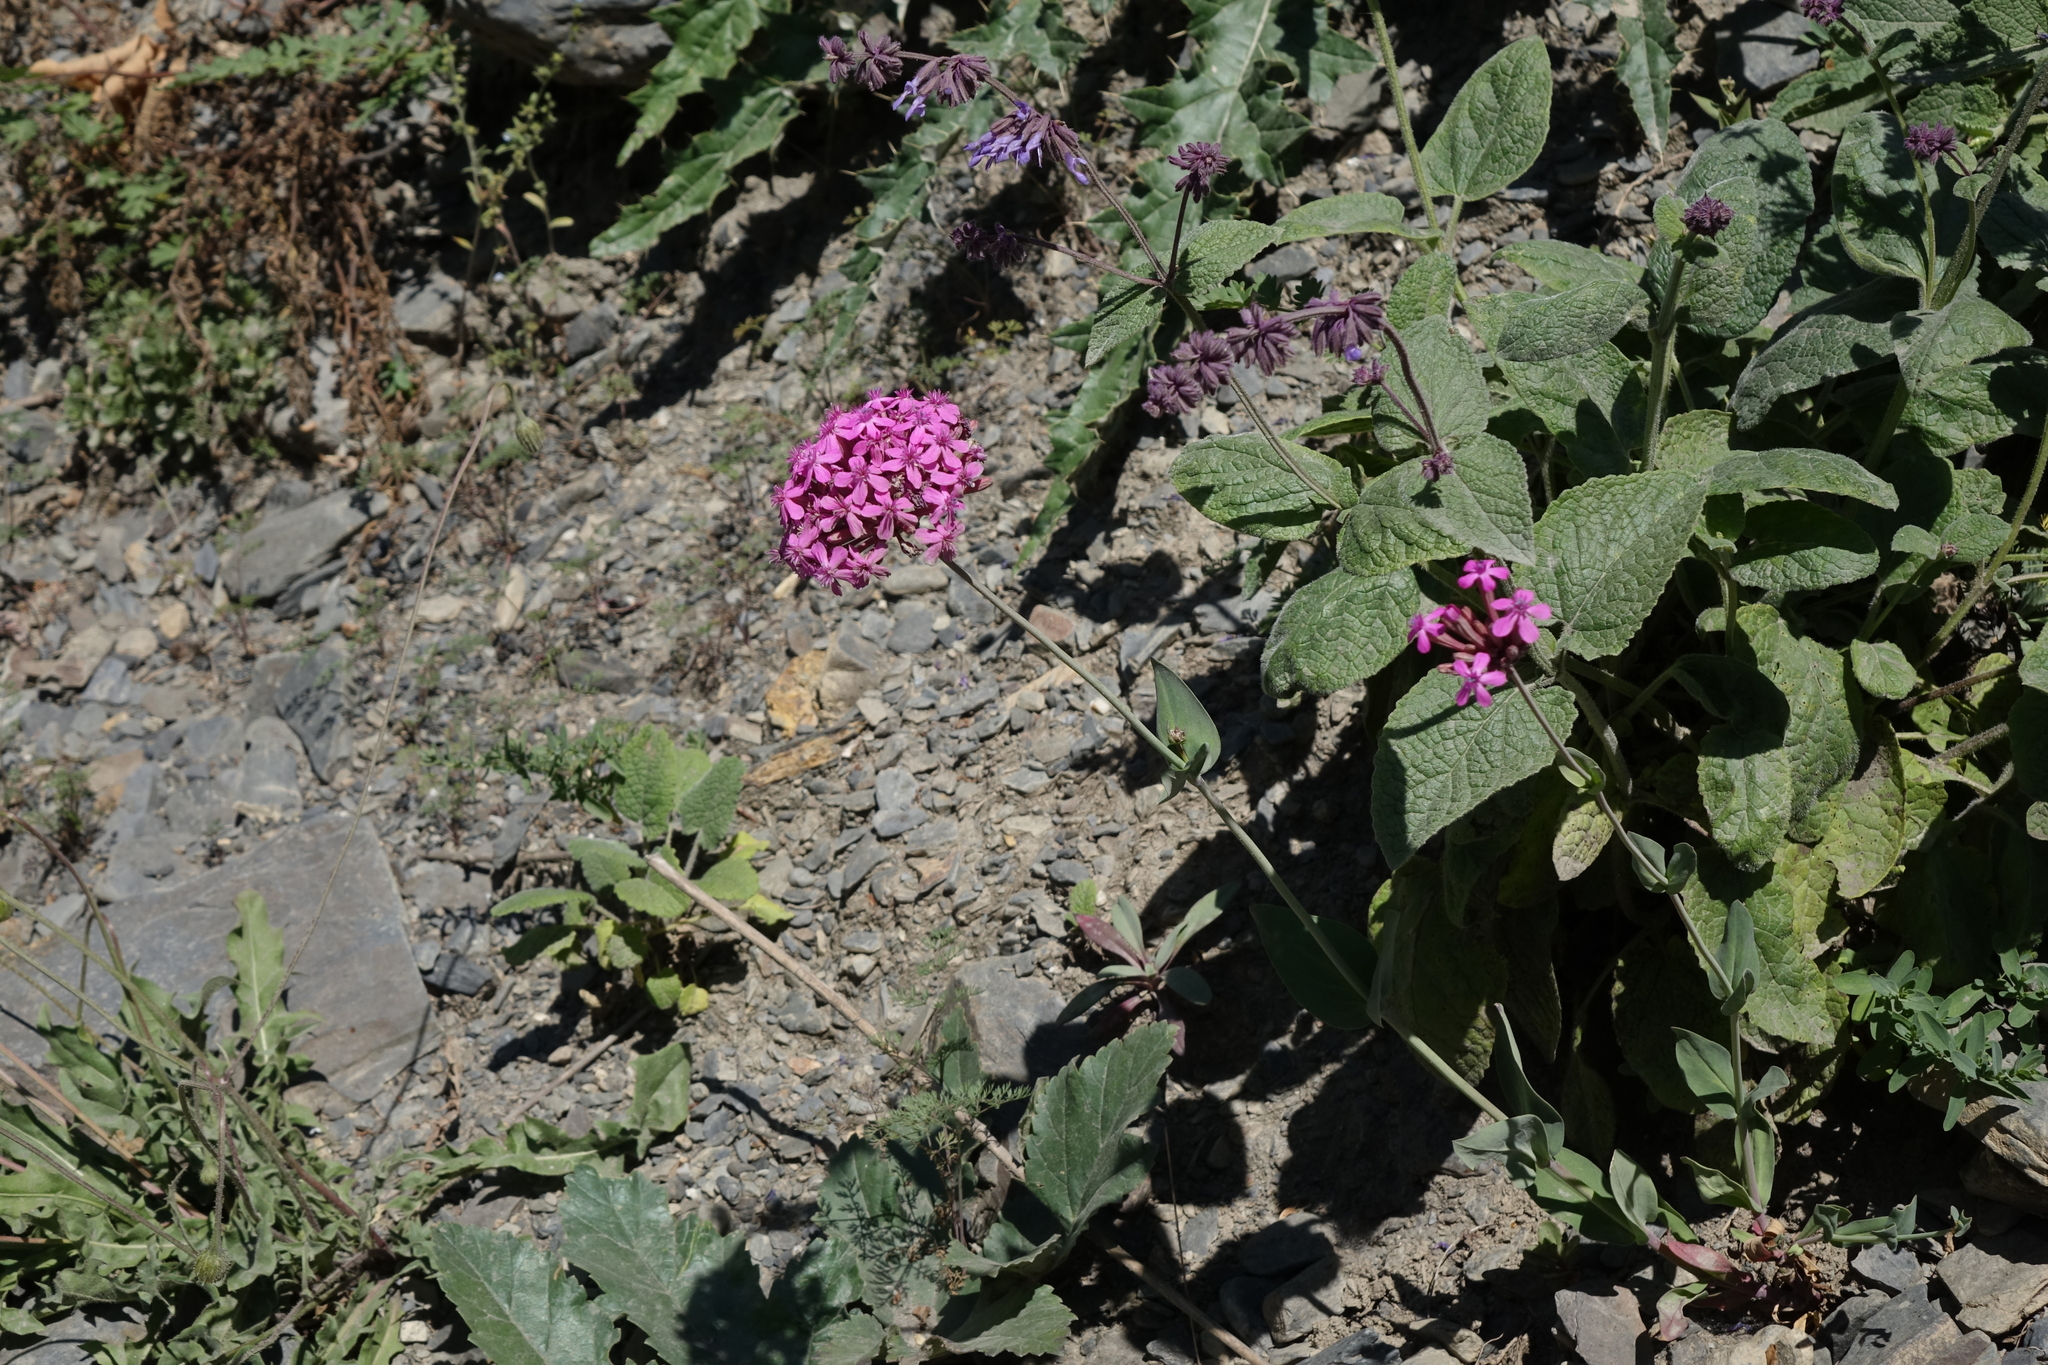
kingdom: Plantae
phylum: Tracheophyta
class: Magnoliopsida
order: Caryophyllales
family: Caryophyllaceae
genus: Atocion
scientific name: Atocion compactum
